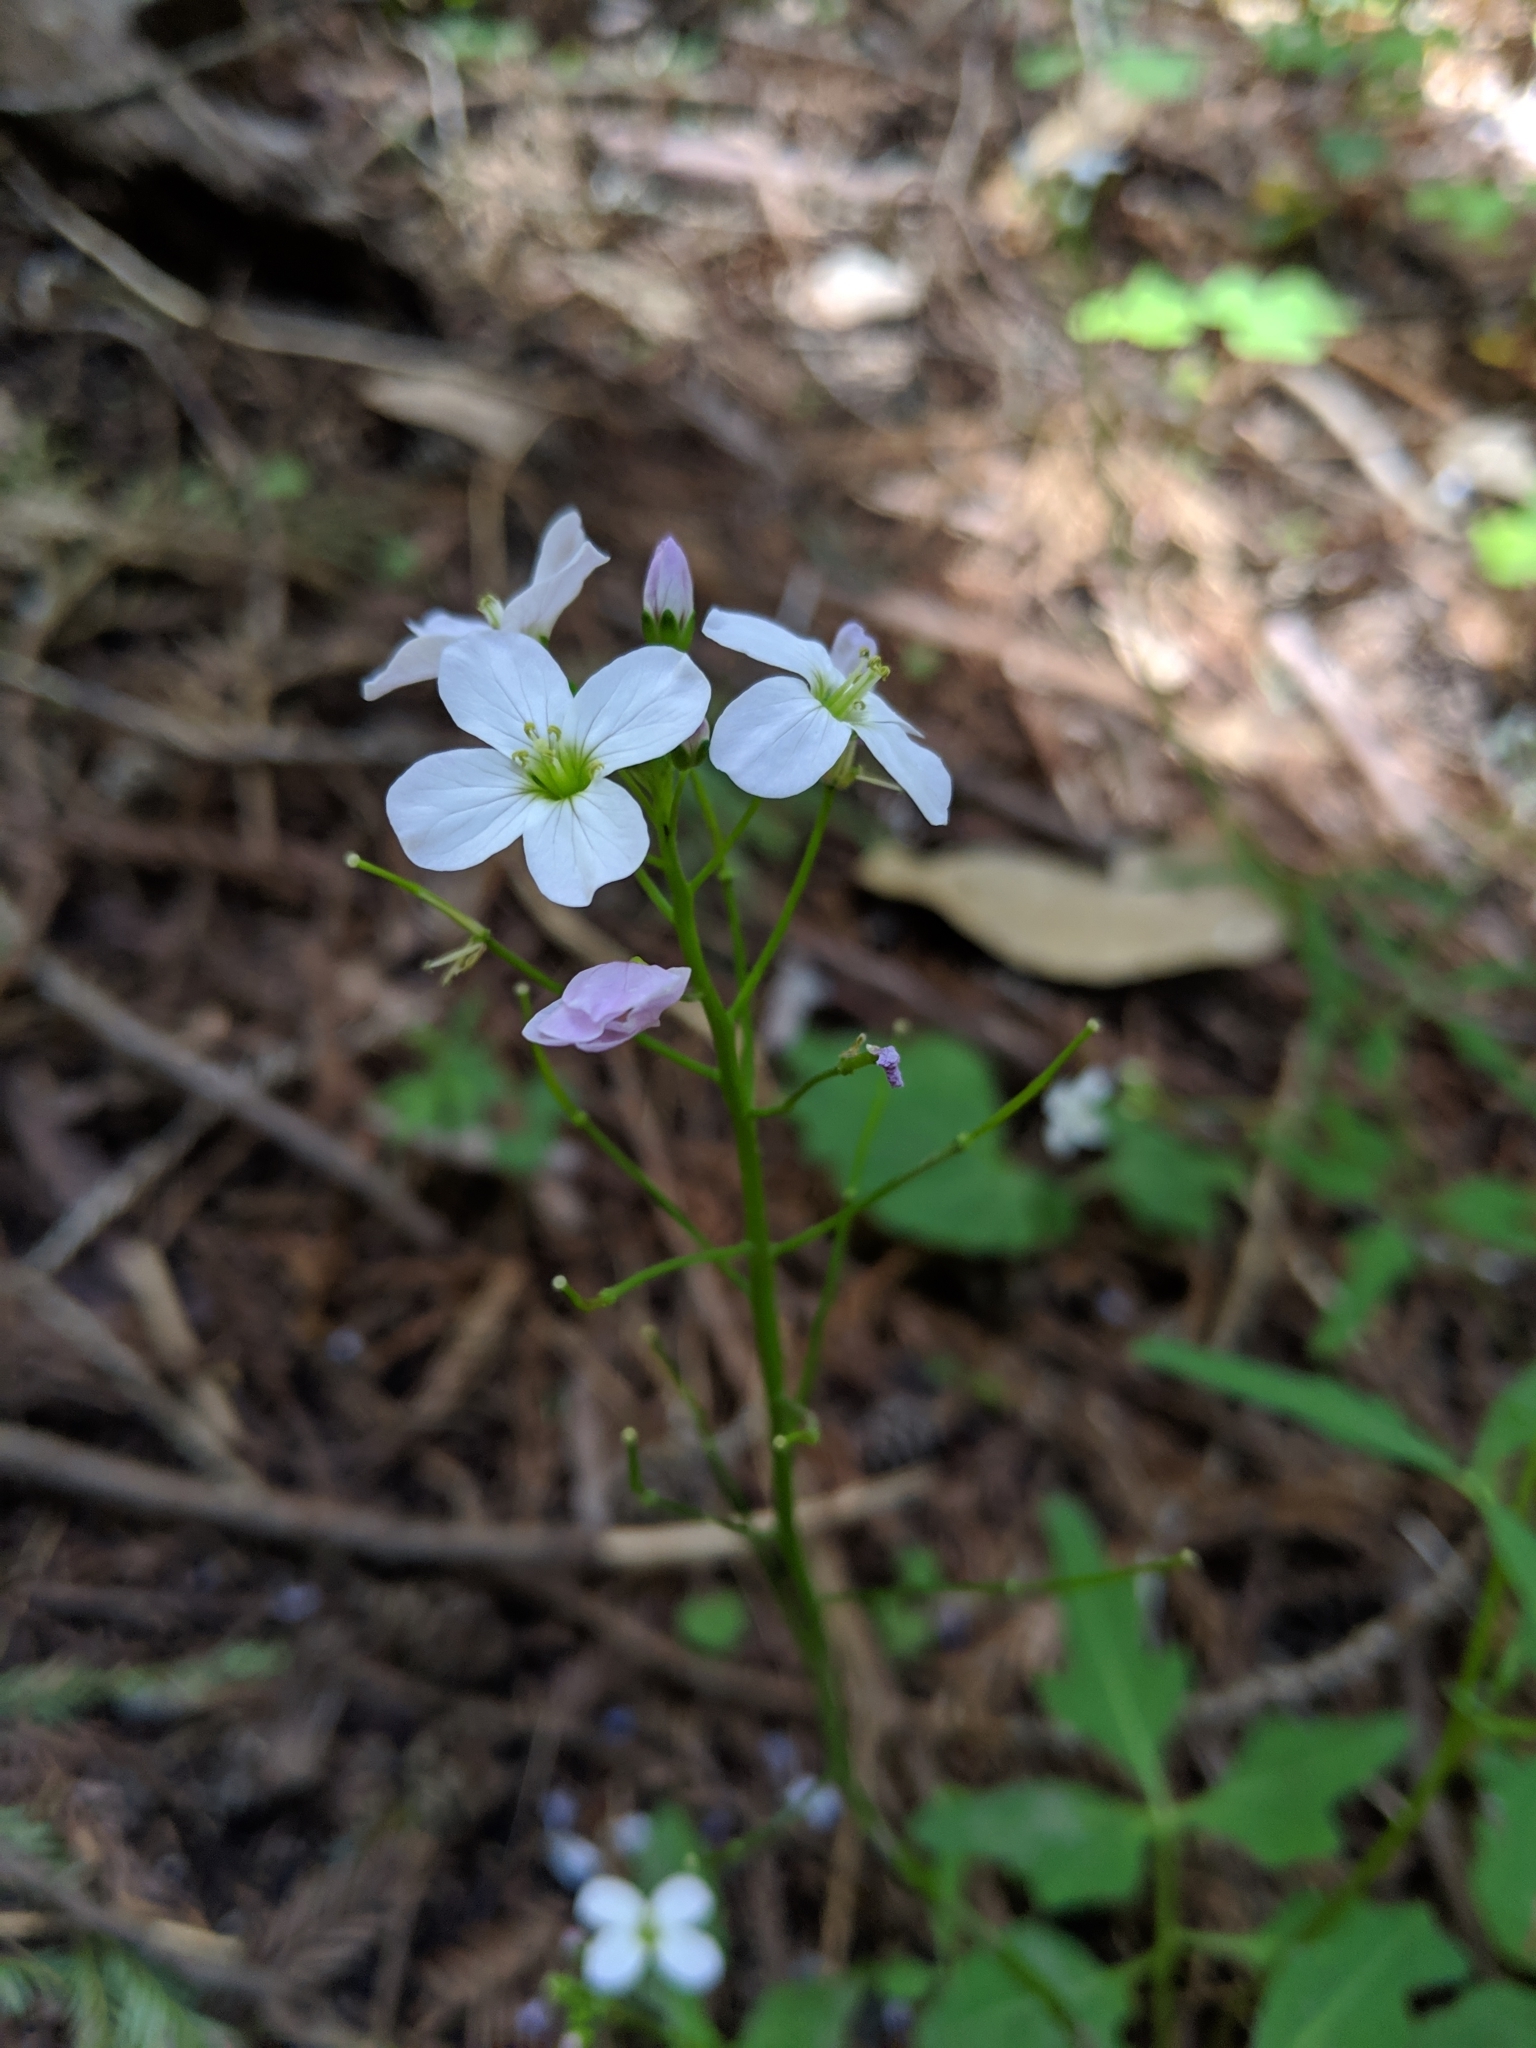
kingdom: Plantae
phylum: Tracheophyta
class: Magnoliopsida
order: Brassicales
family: Brassicaceae
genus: Cardamine
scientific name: Cardamine californica
